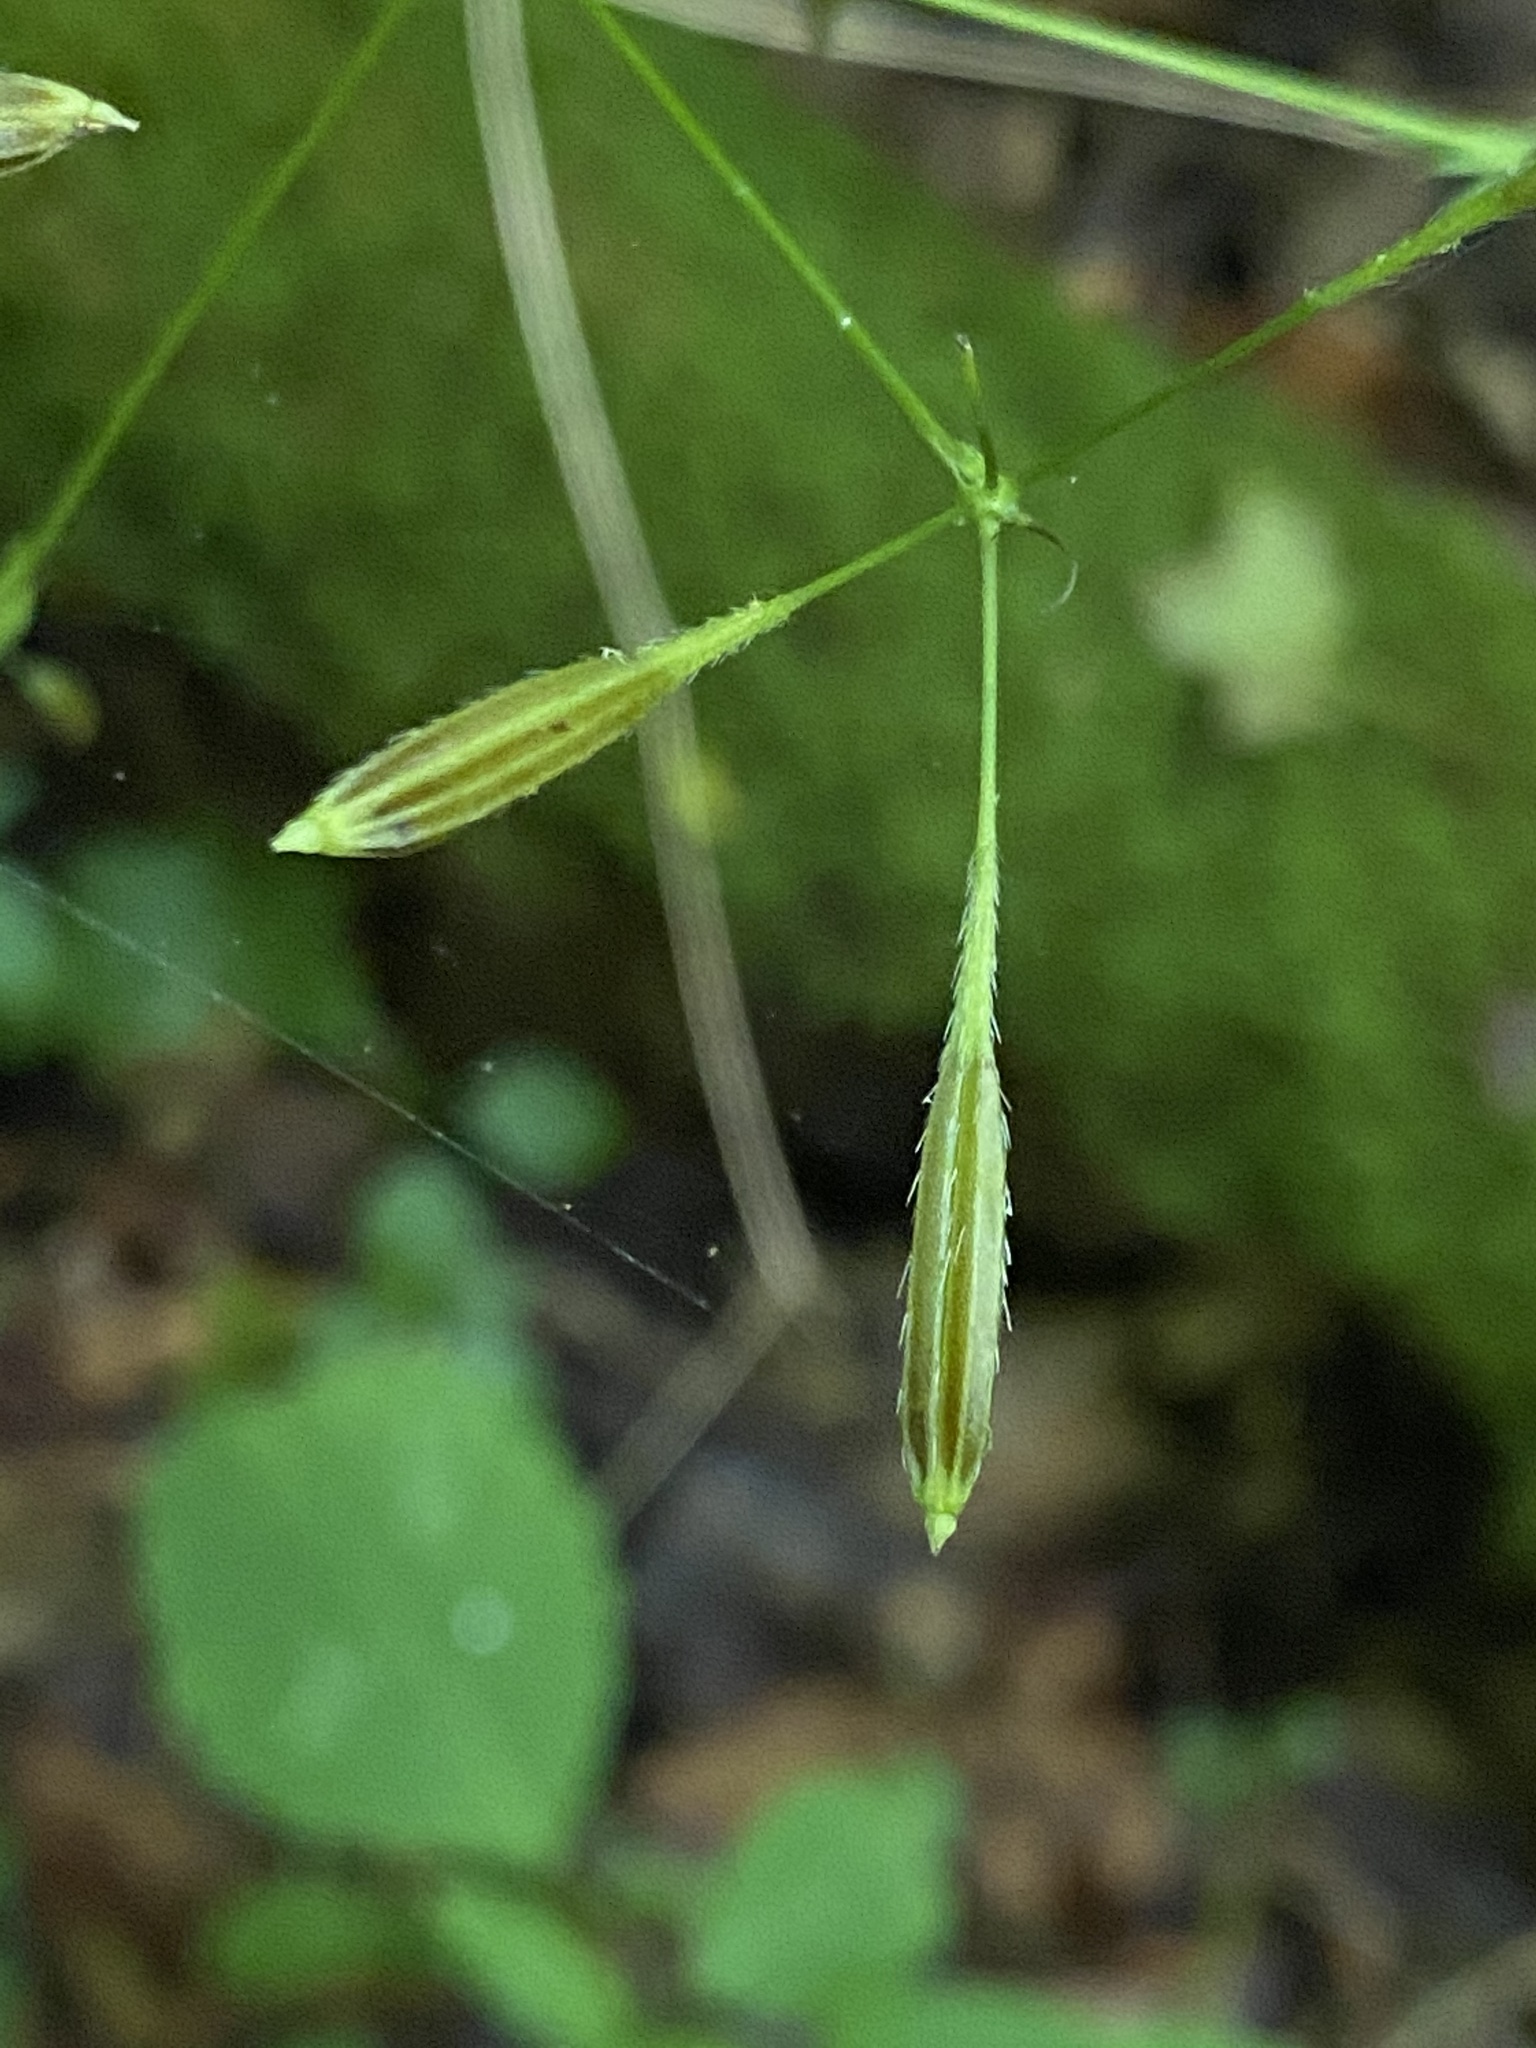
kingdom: Plantae
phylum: Tracheophyta
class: Magnoliopsida
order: Apiales
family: Apiaceae
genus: Osmorhiza
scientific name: Osmorhiza claytonii
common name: Hairy sweet cicely
